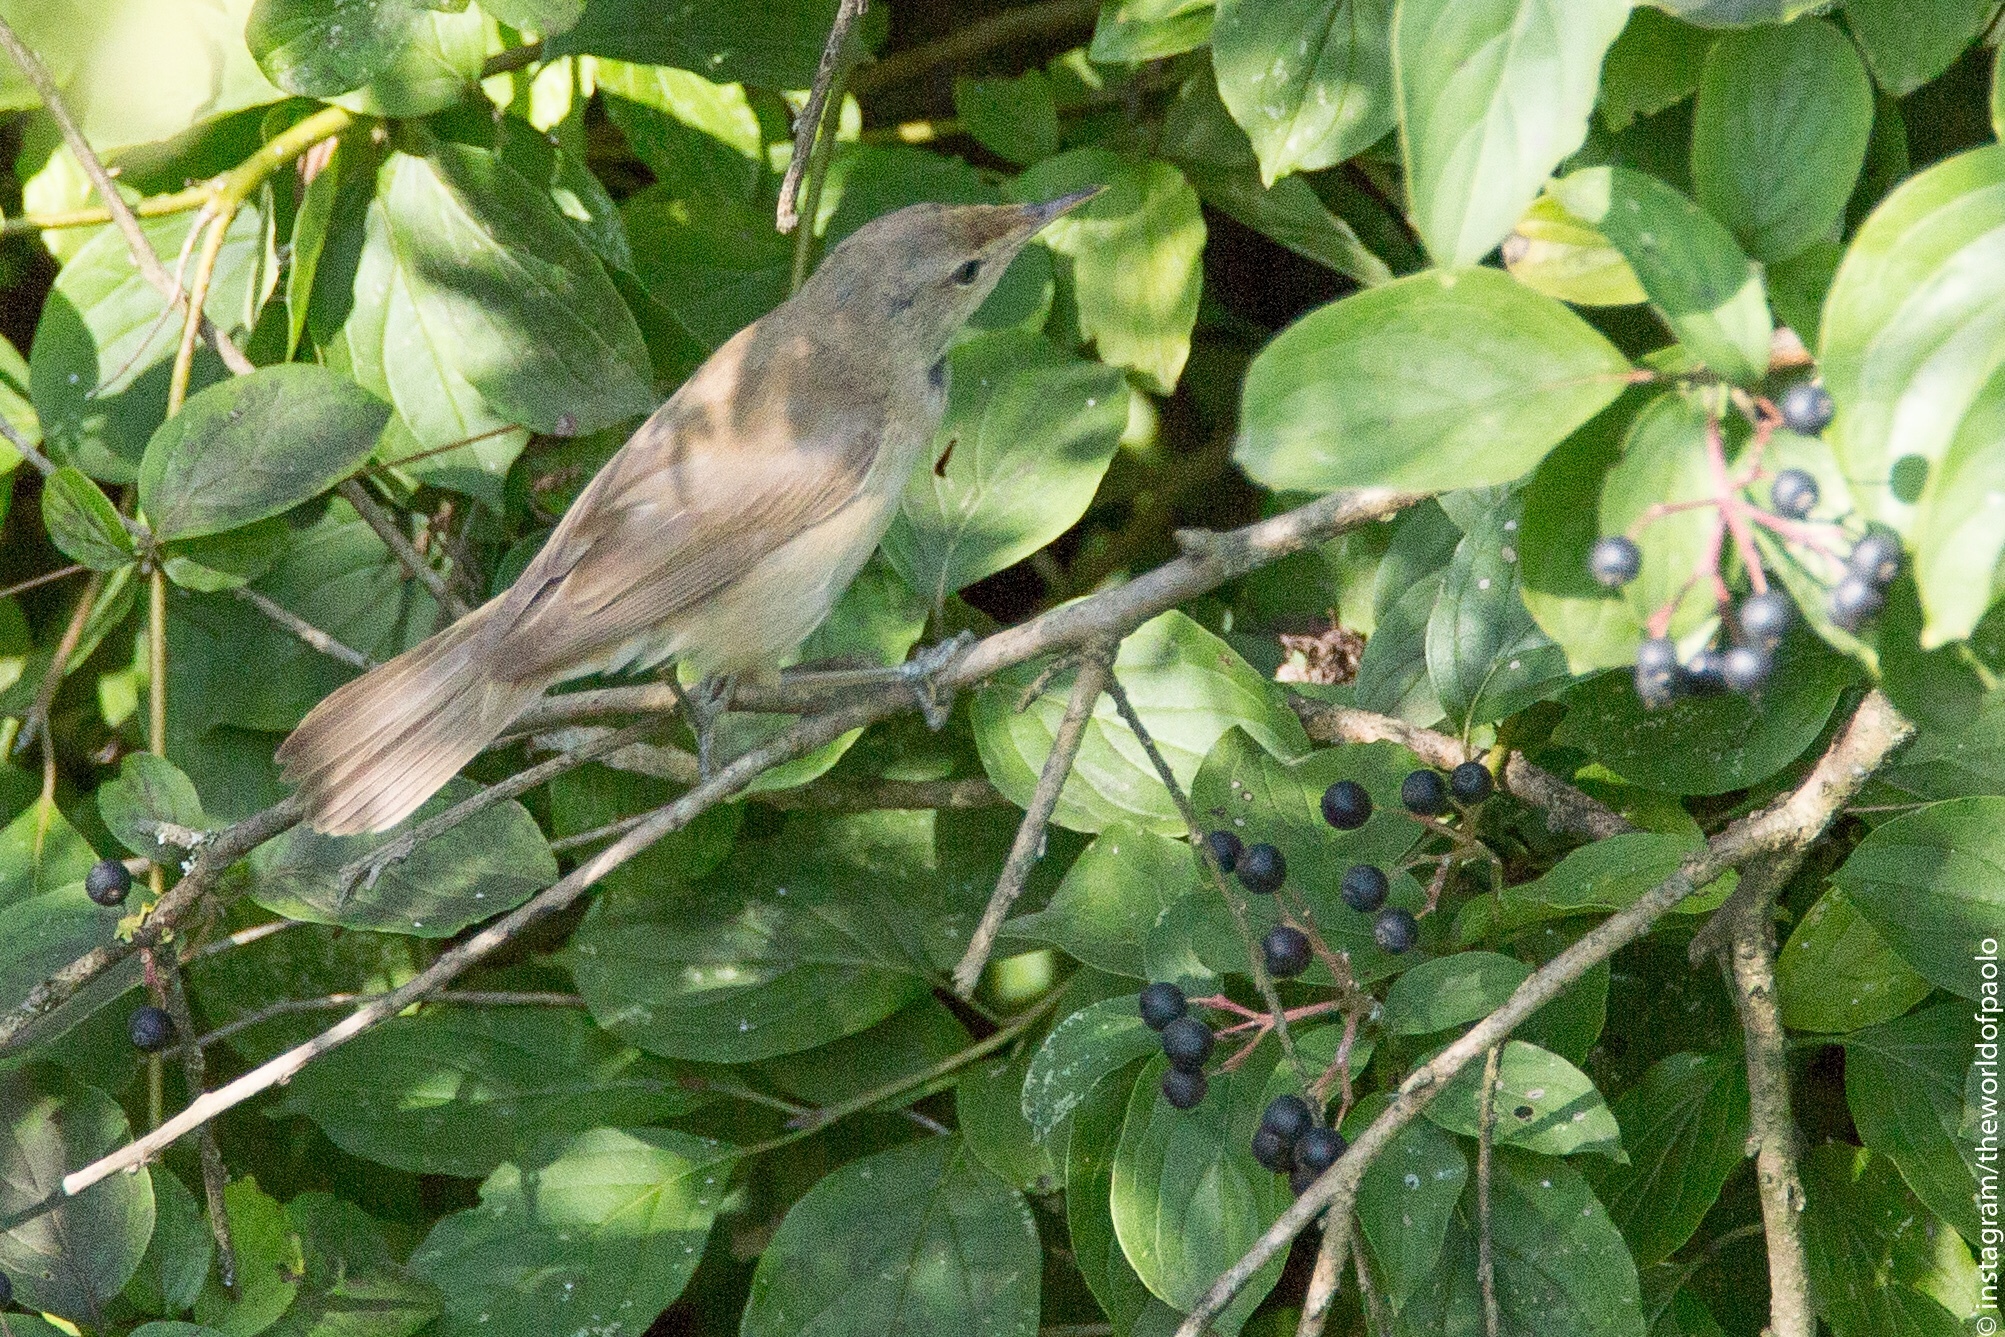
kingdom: Animalia
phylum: Chordata
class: Aves
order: Passeriformes
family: Acrocephalidae
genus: Acrocephalus
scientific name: Acrocephalus scirpaceus
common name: Eurasian reed warbler
